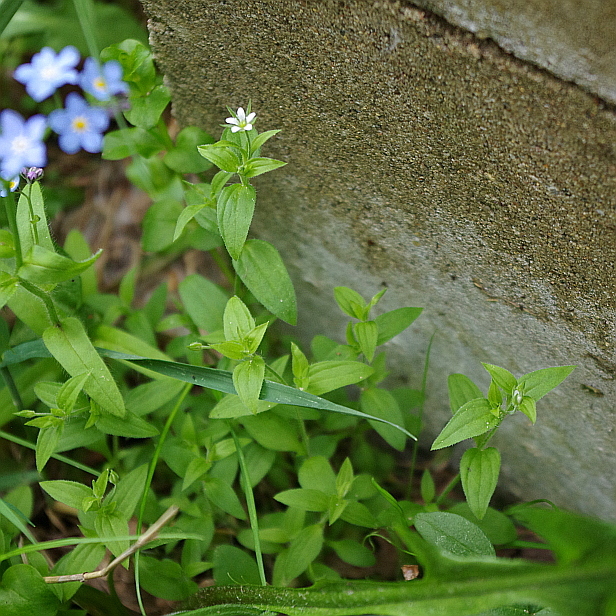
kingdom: Plantae
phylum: Tracheophyta
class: Magnoliopsida
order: Caryophyllales
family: Caryophyllaceae
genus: Moehringia
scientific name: Moehringia trinervia
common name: Three-nerved sandwort
